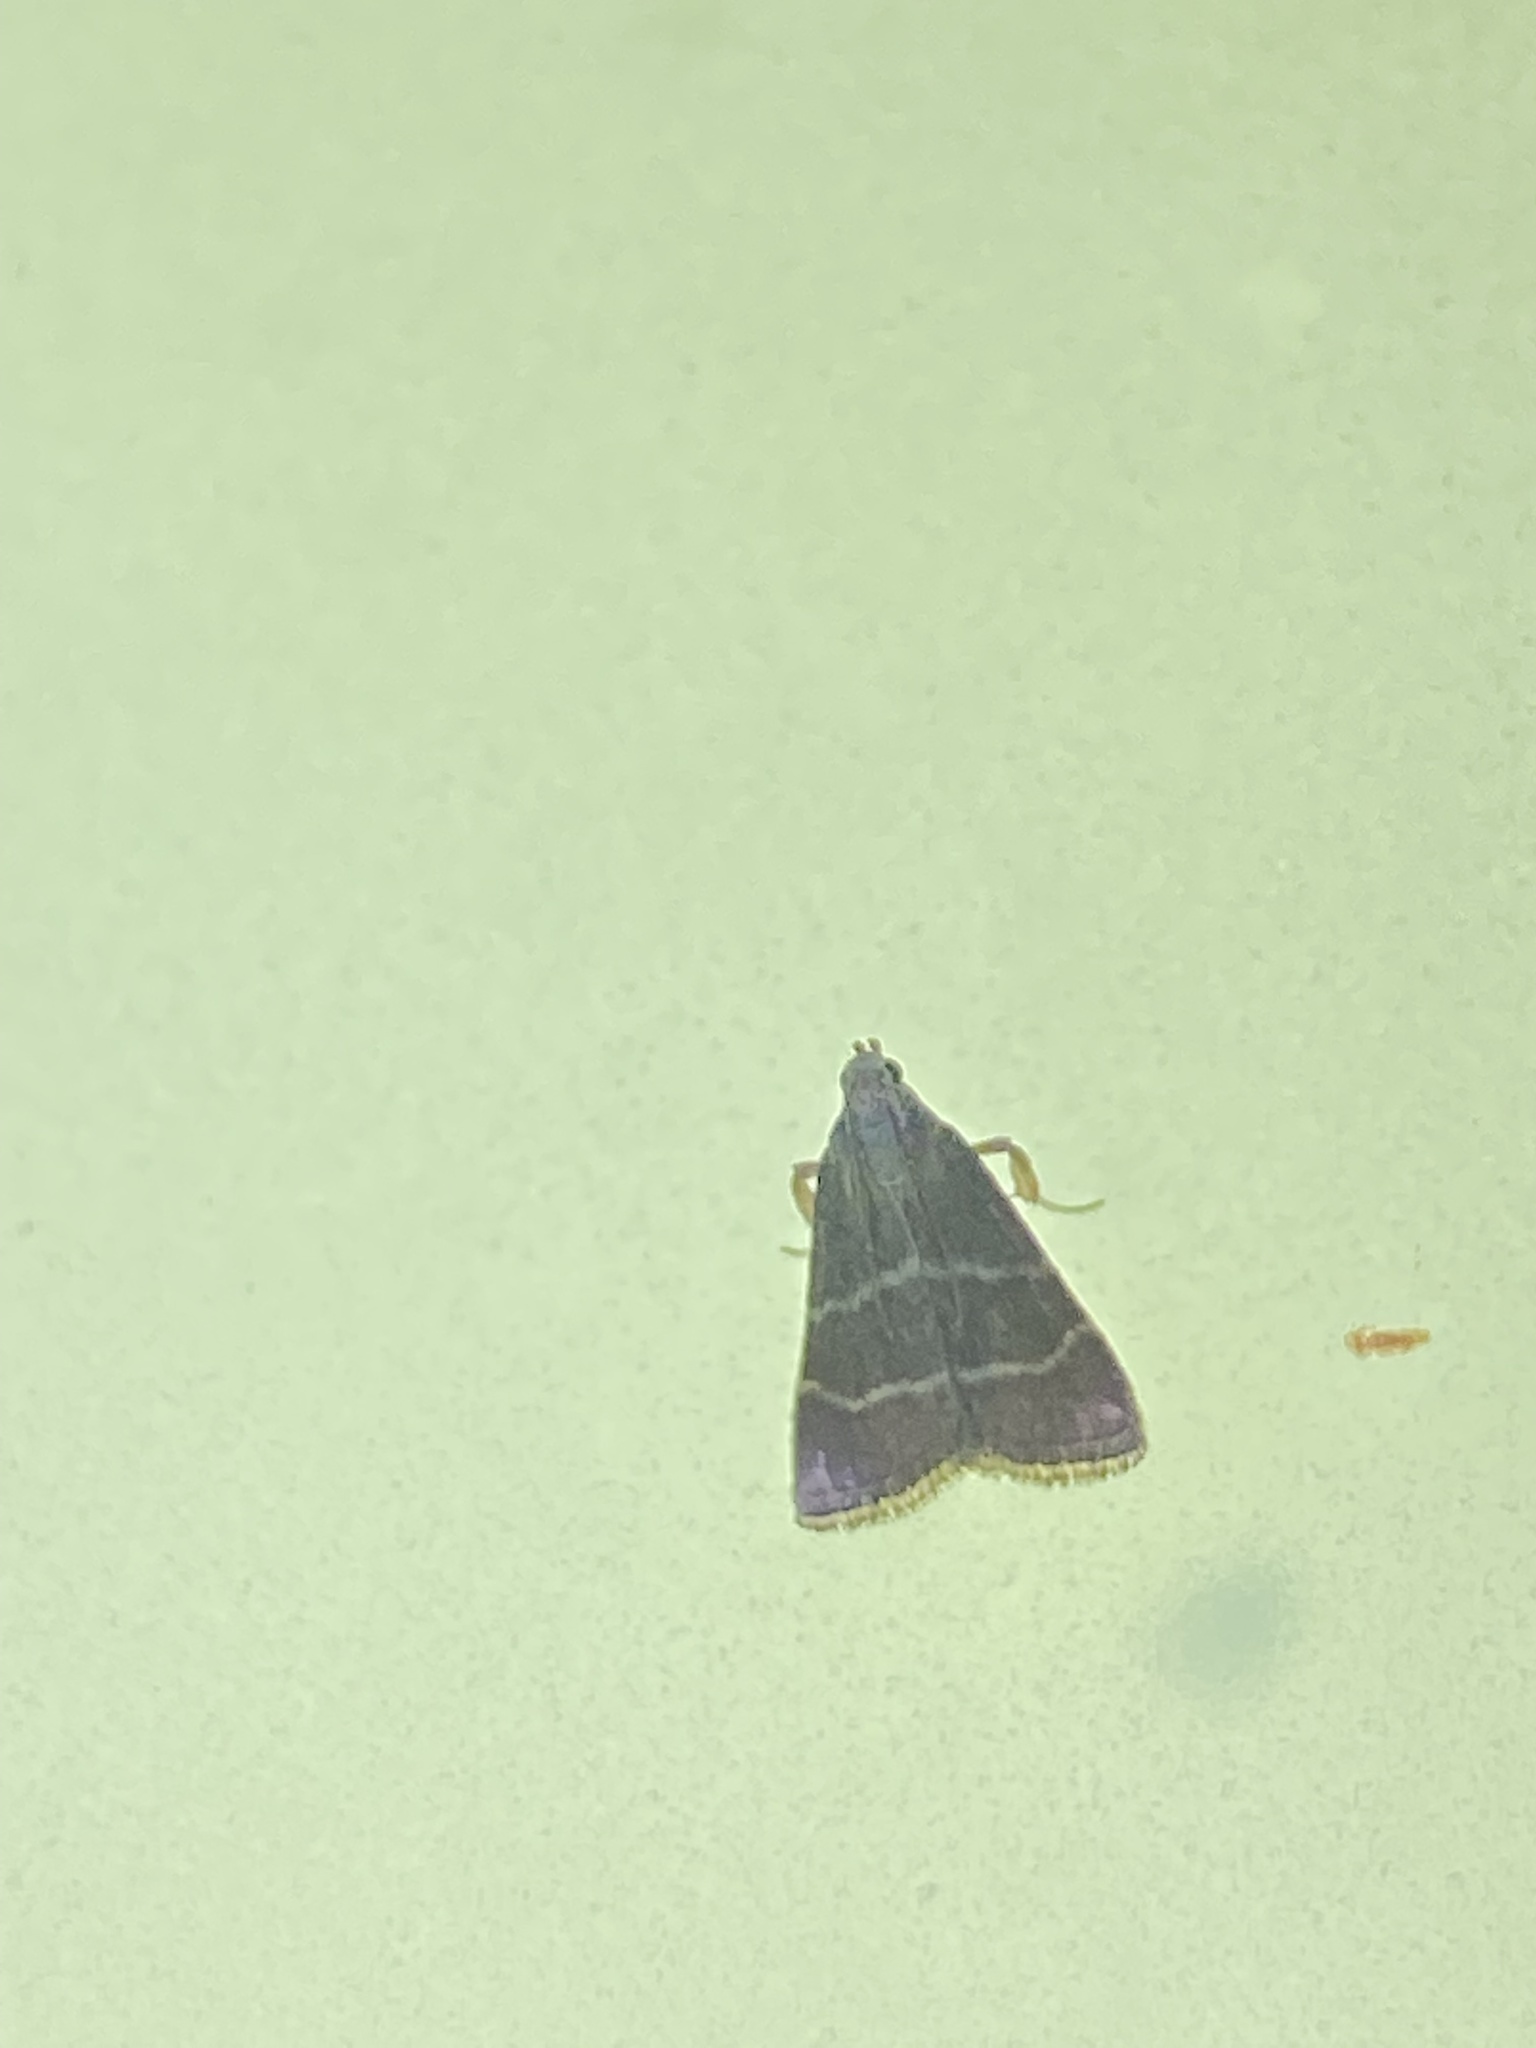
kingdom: Animalia
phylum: Arthropoda
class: Insecta
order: Lepidoptera
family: Pyralidae
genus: Arta
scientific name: Arta statalis
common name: Posturing arta moth
